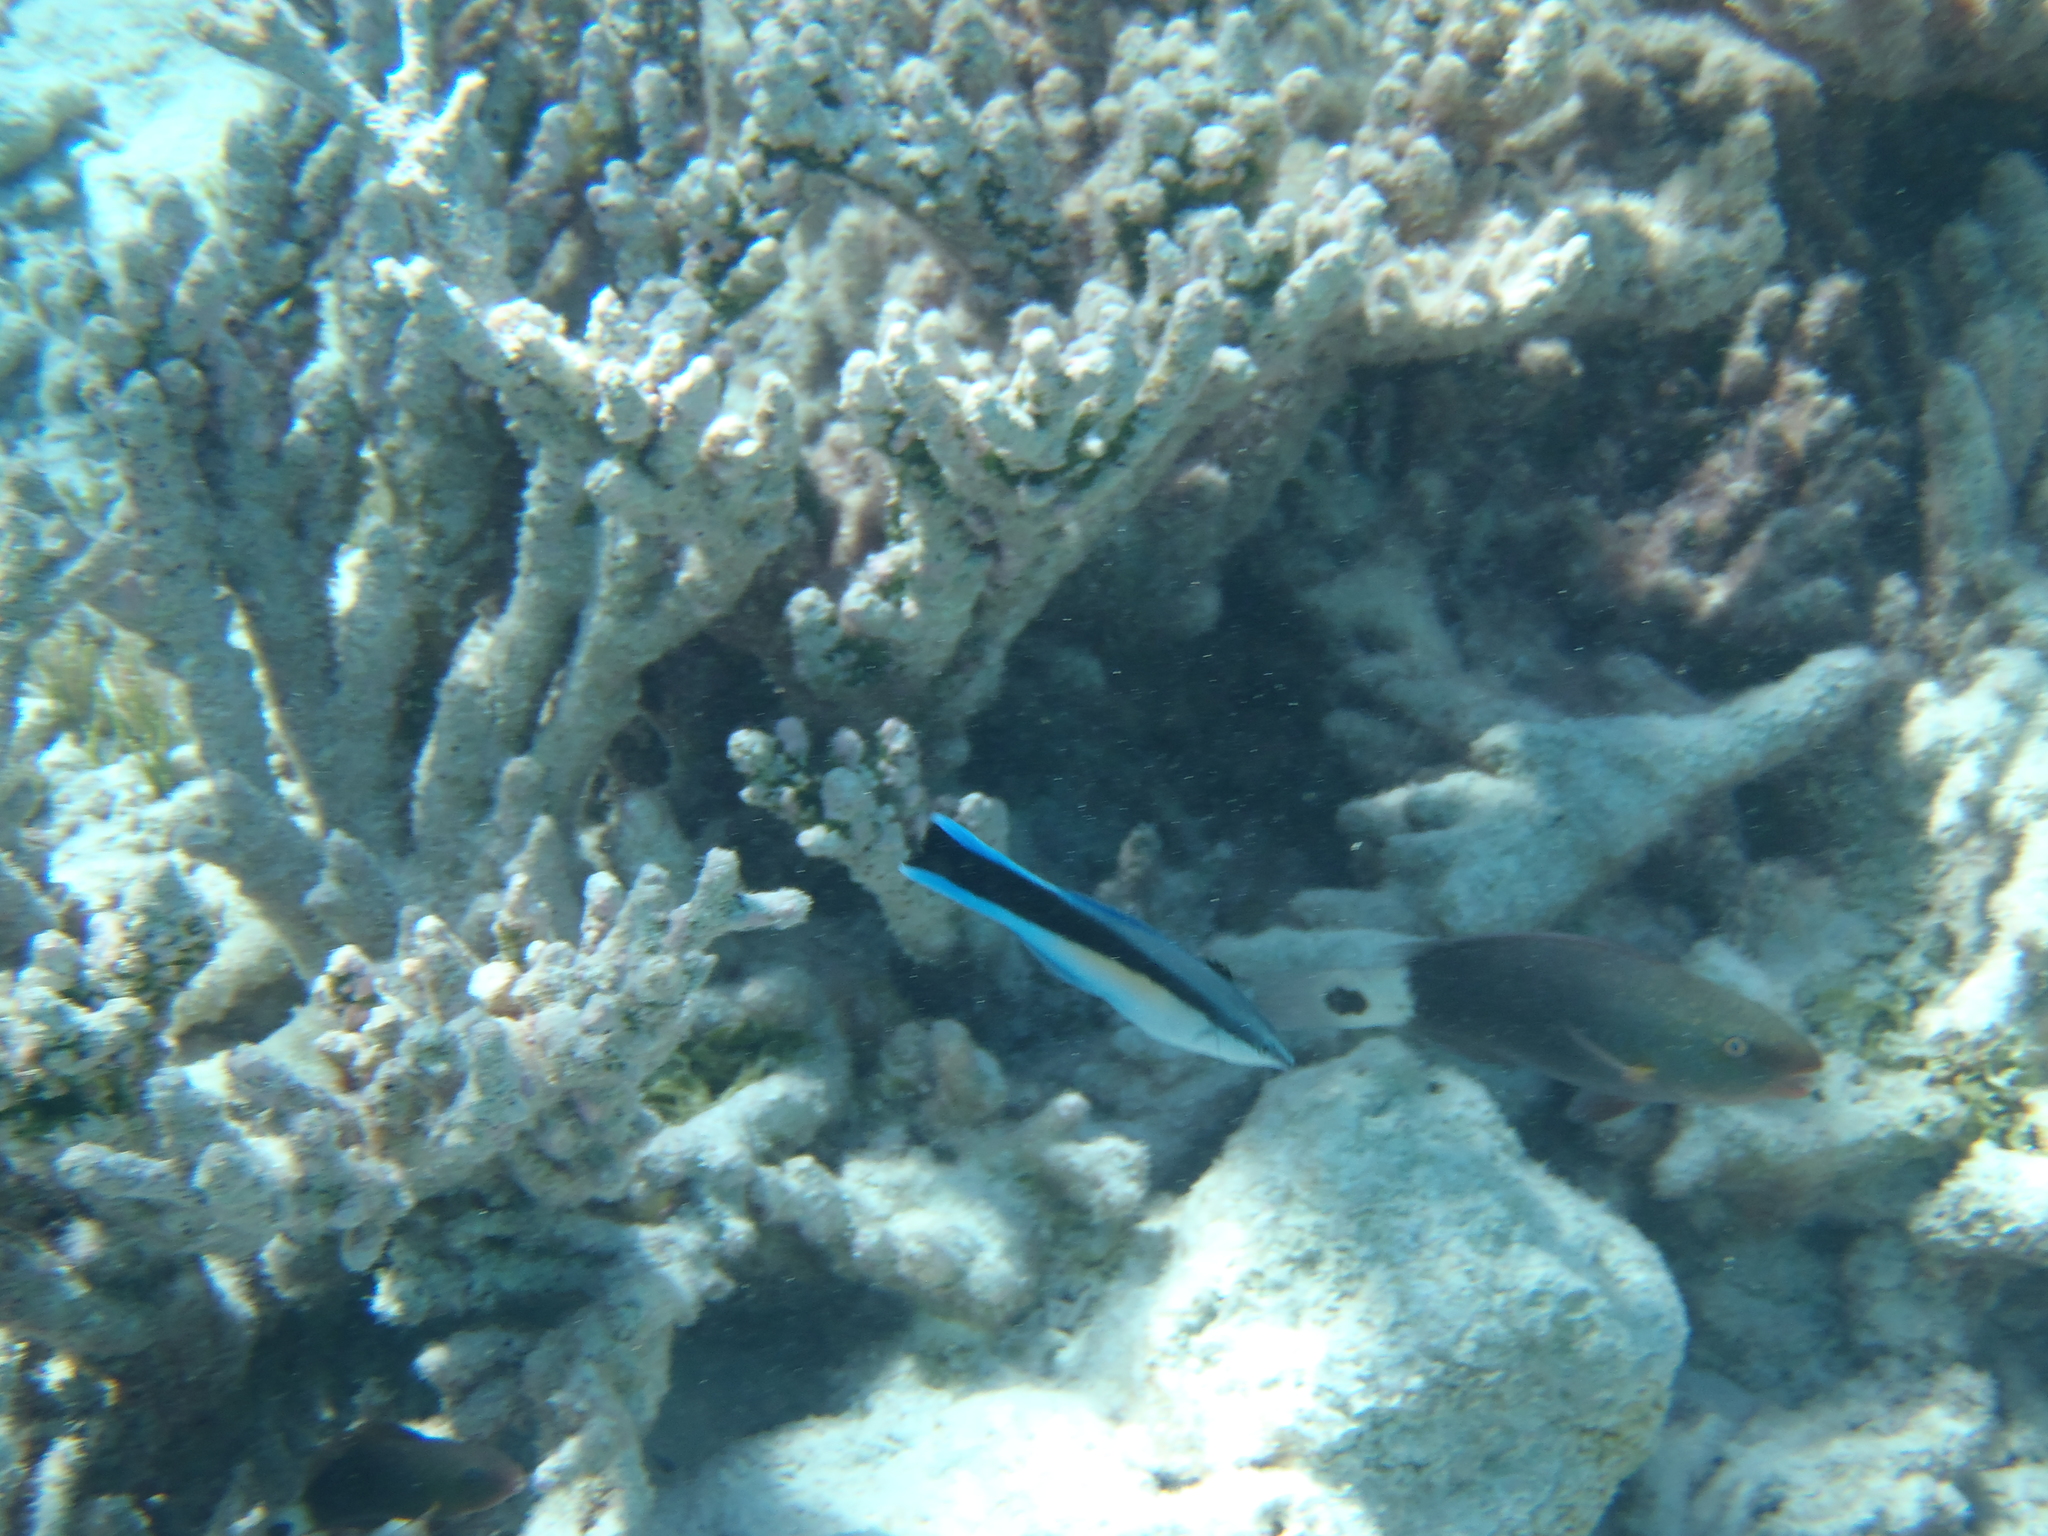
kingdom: Animalia
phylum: Chordata
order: Perciformes
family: Scaridae
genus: Chlorurus
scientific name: Chlorurus spilurus
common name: Bullethead parrotfish
